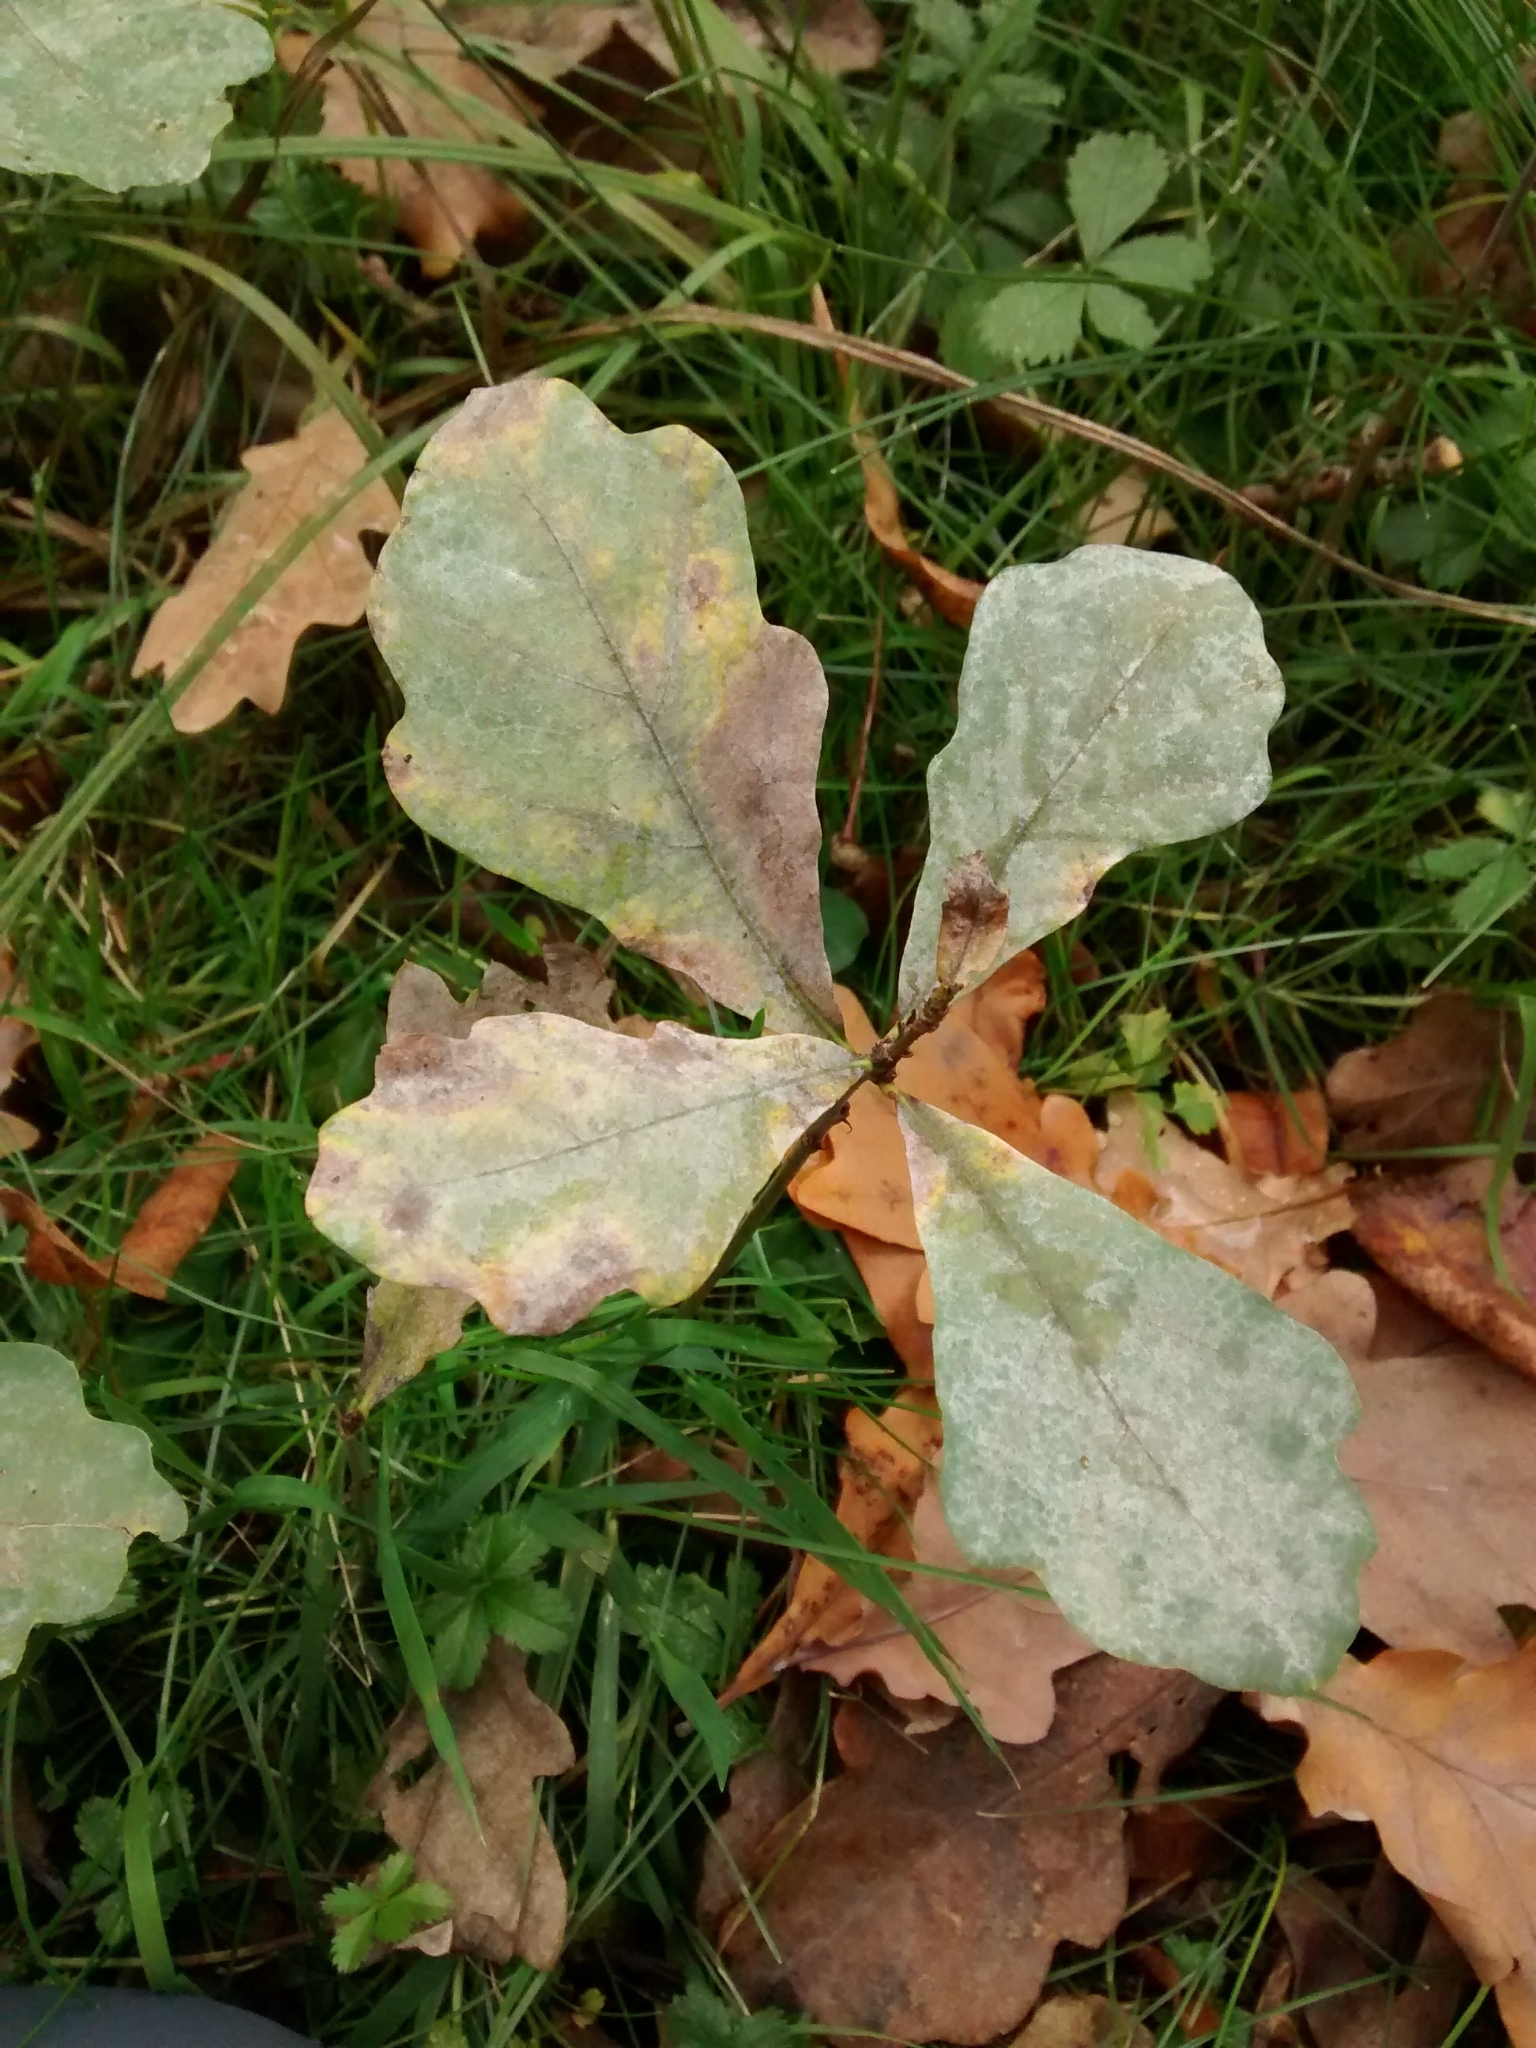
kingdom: Plantae
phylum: Tracheophyta
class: Magnoliopsida
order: Fagales
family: Fagaceae
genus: Quercus
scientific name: Quercus robur
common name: Pedunculate oak
